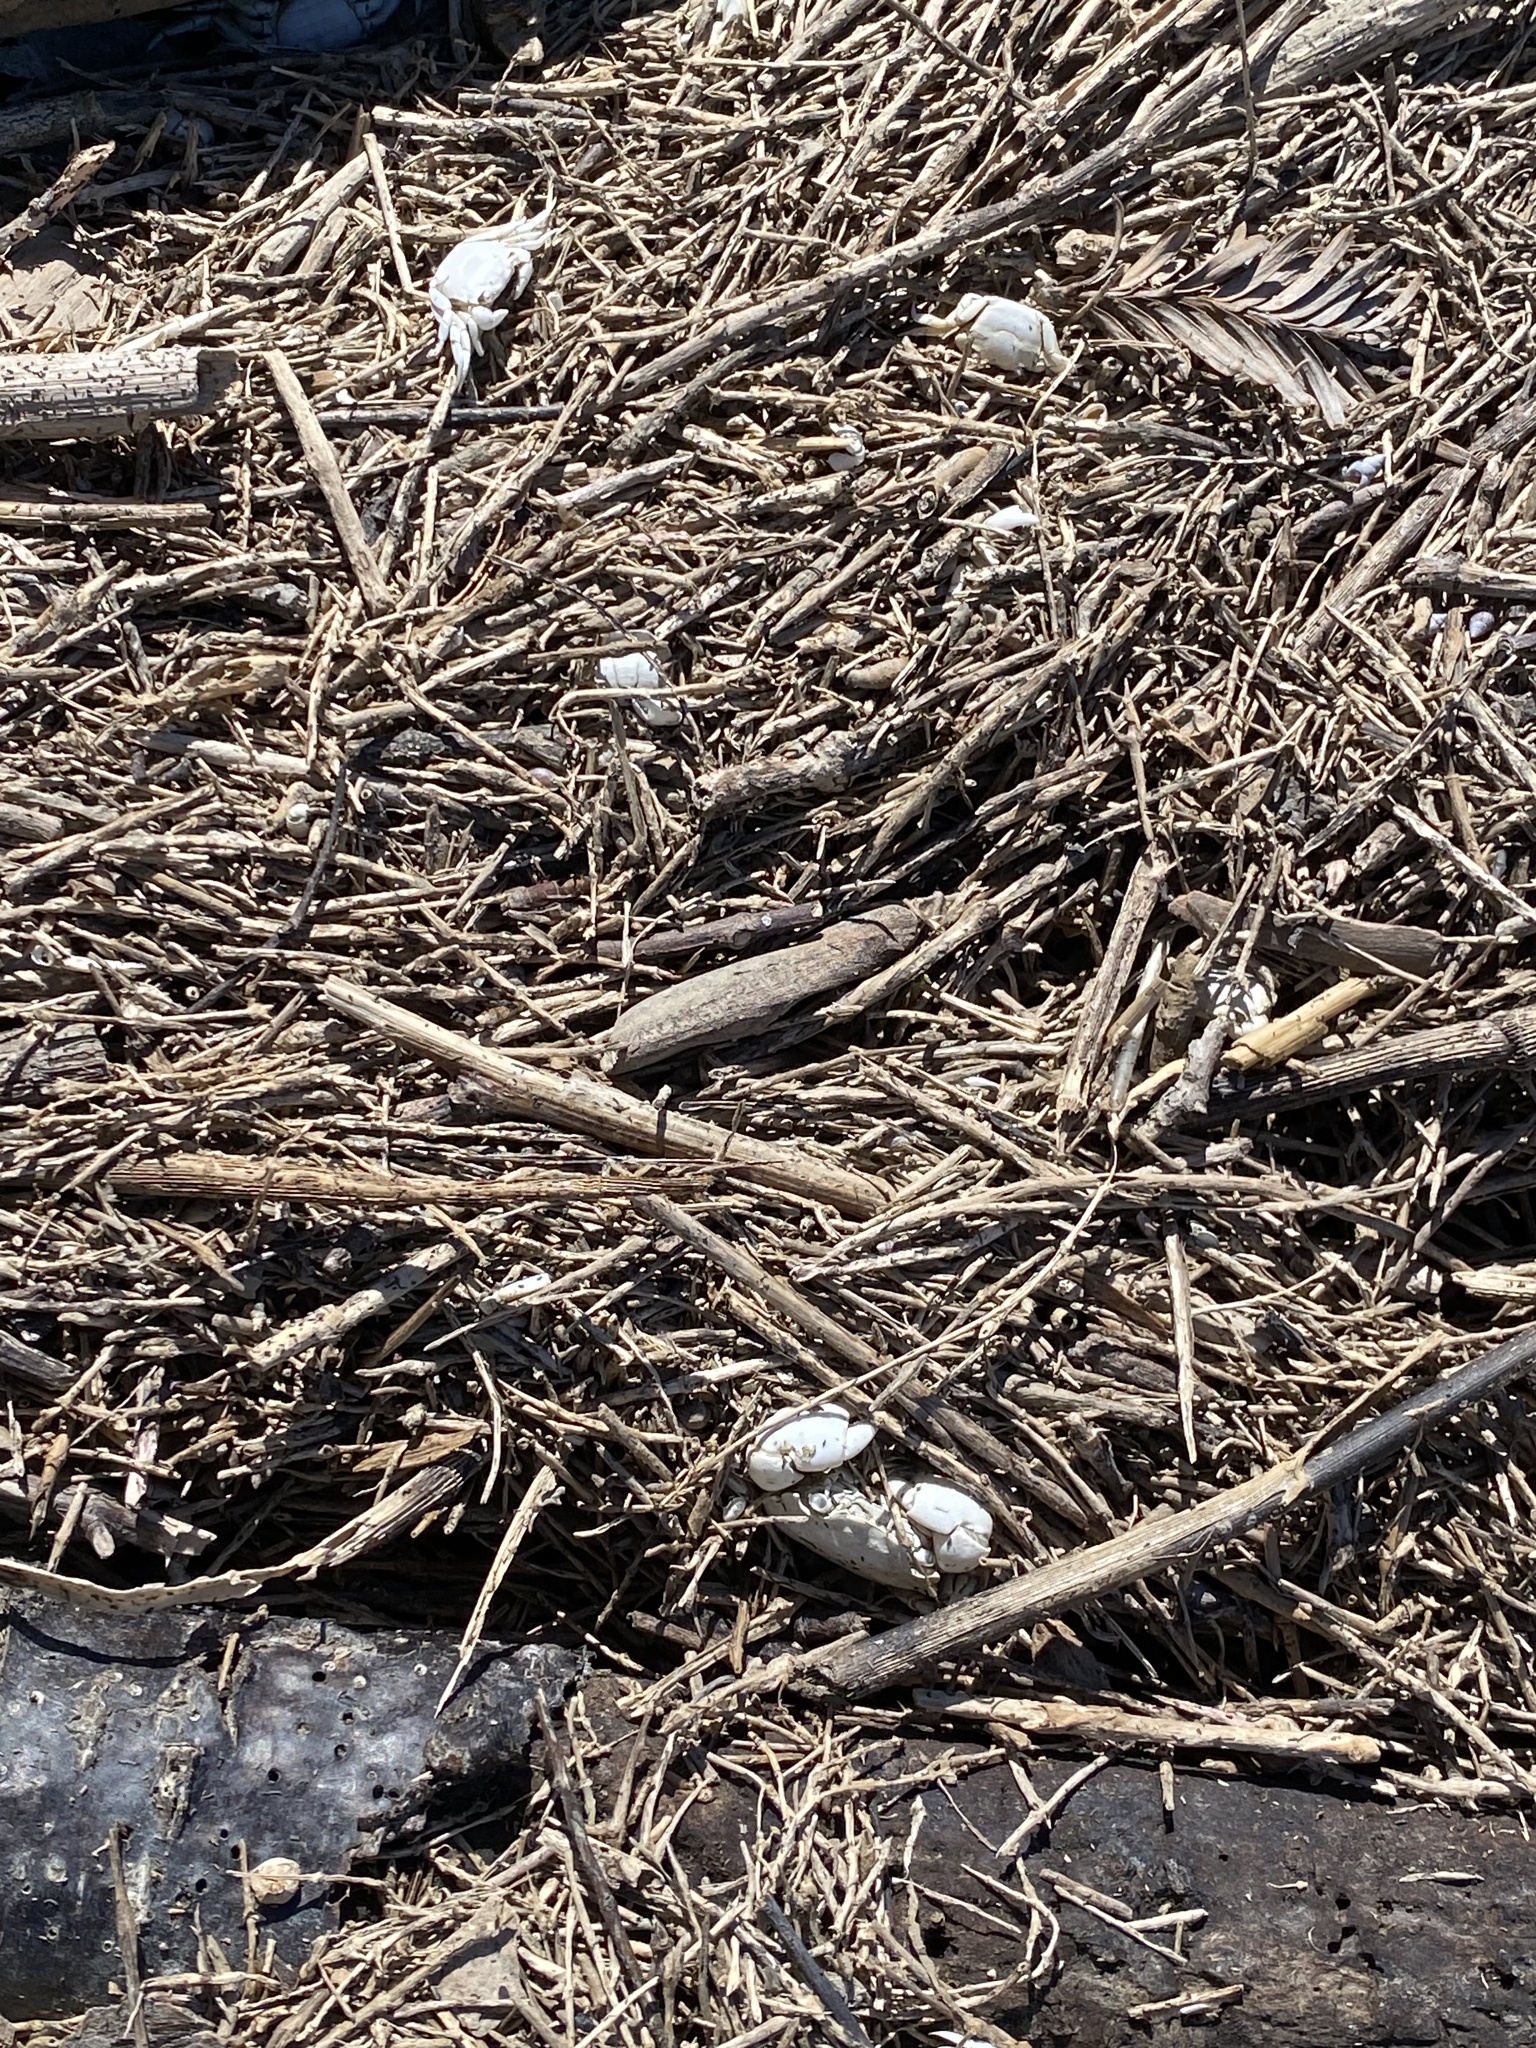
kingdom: Animalia
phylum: Arthropoda
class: Malacostraca
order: Decapoda
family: Varunidae
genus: Hemigrapsus
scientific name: Hemigrapsus oregonensis
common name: Yellow shore crab
